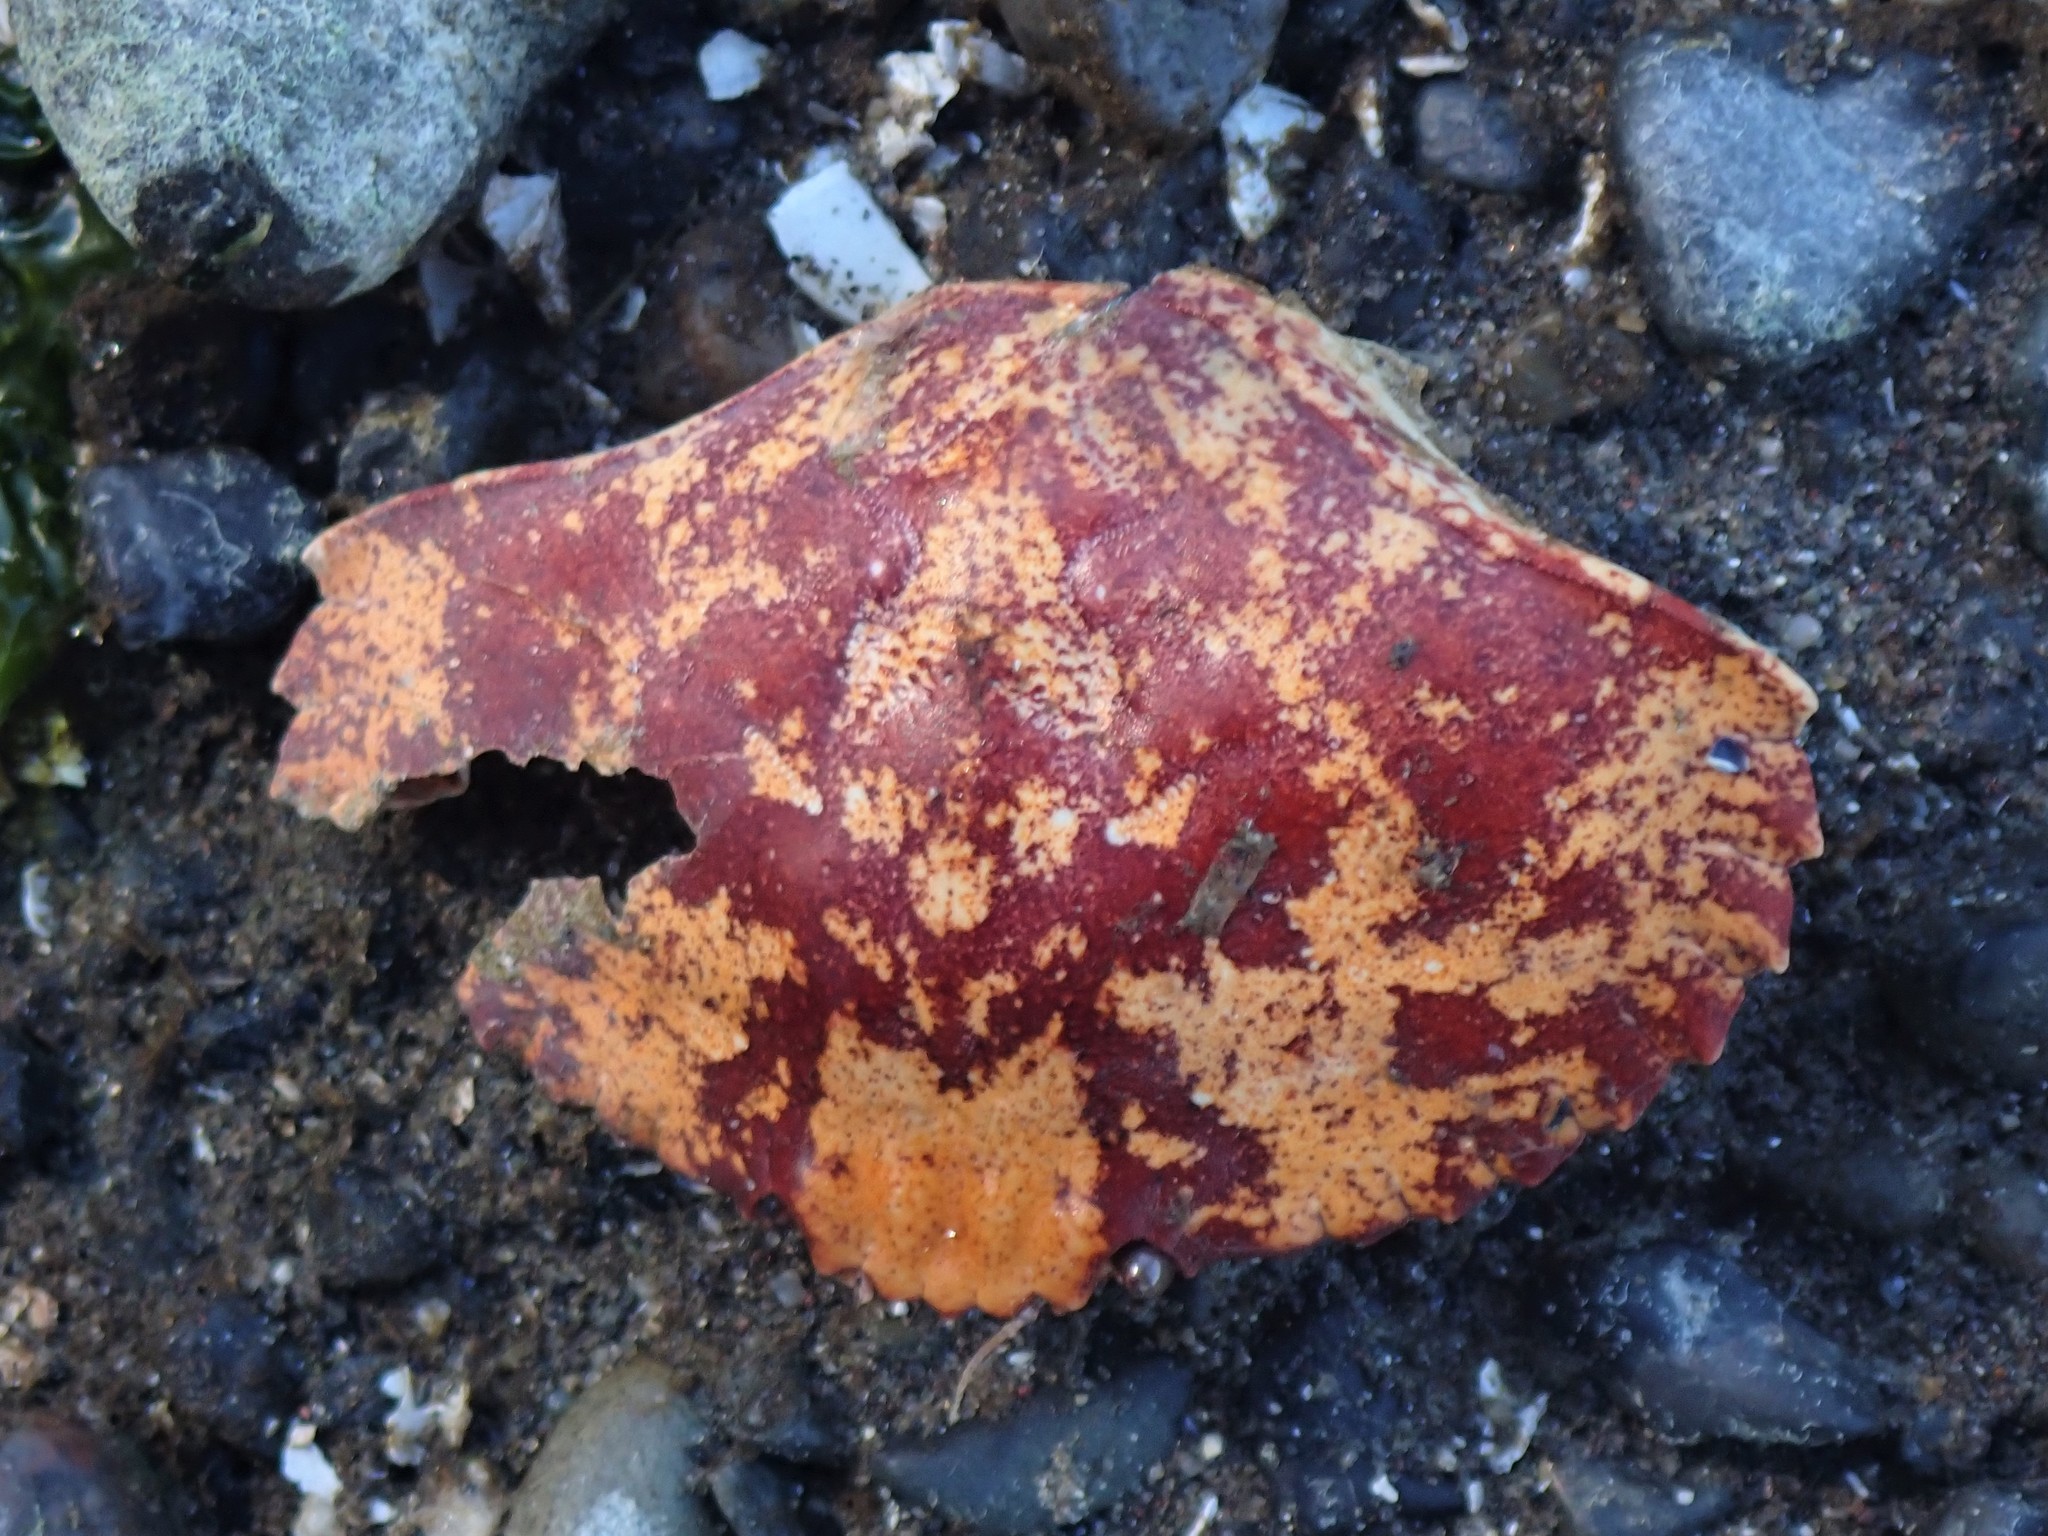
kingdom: Animalia
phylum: Arthropoda
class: Malacostraca
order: Decapoda
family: Cancridae
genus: Cancer
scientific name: Cancer productus
